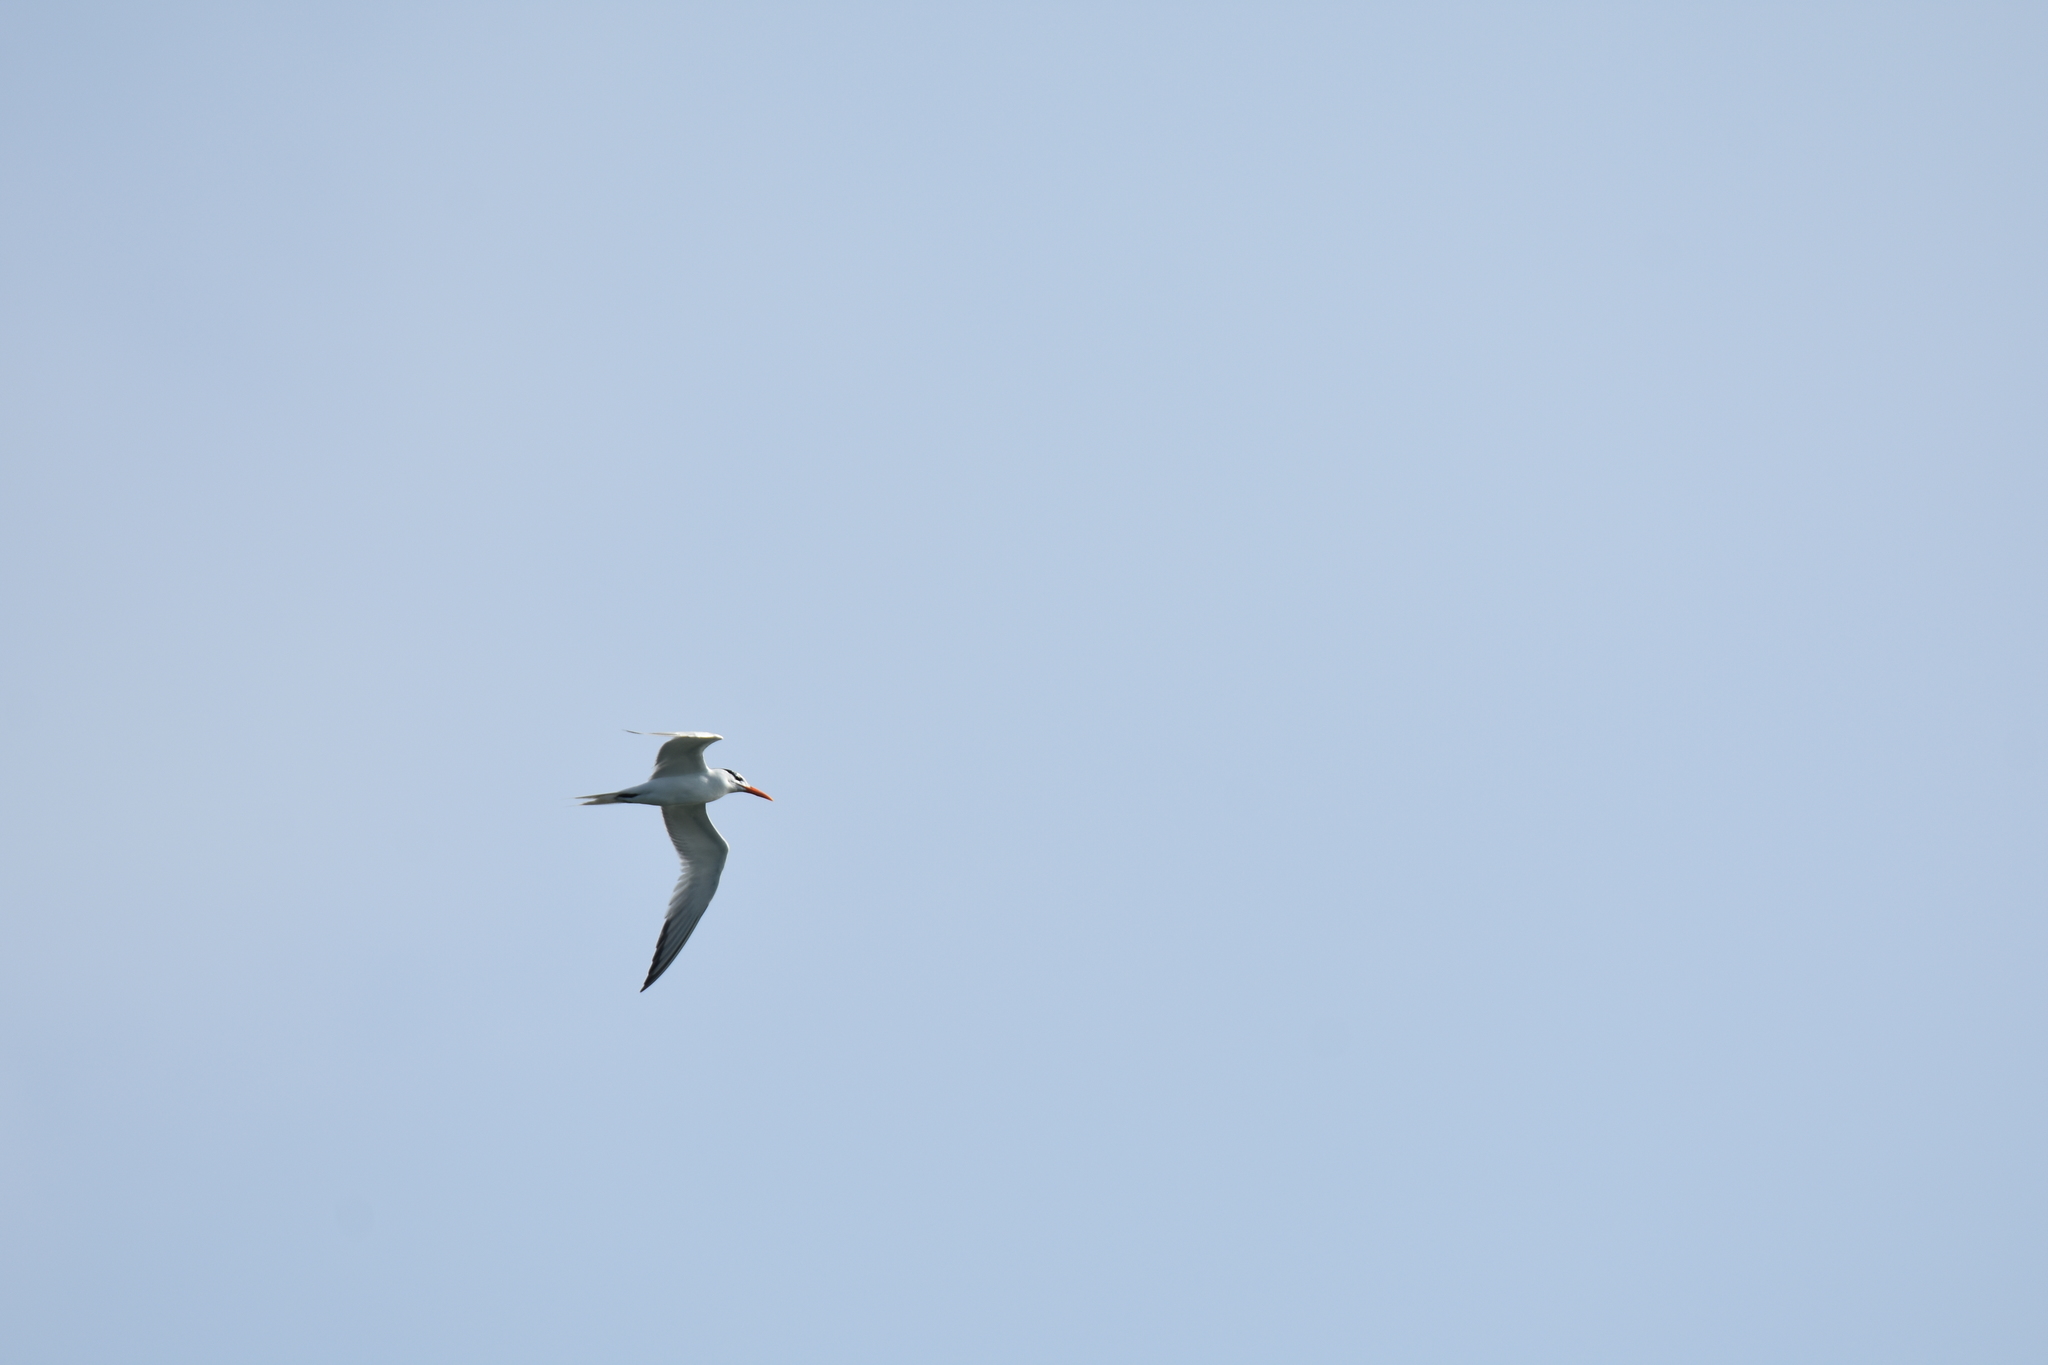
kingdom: Animalia
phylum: Chordata
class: Aves
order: Charadriiformes
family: Laridae
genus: Thalasseus
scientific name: Thalasseus maximus
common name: Royal tern
